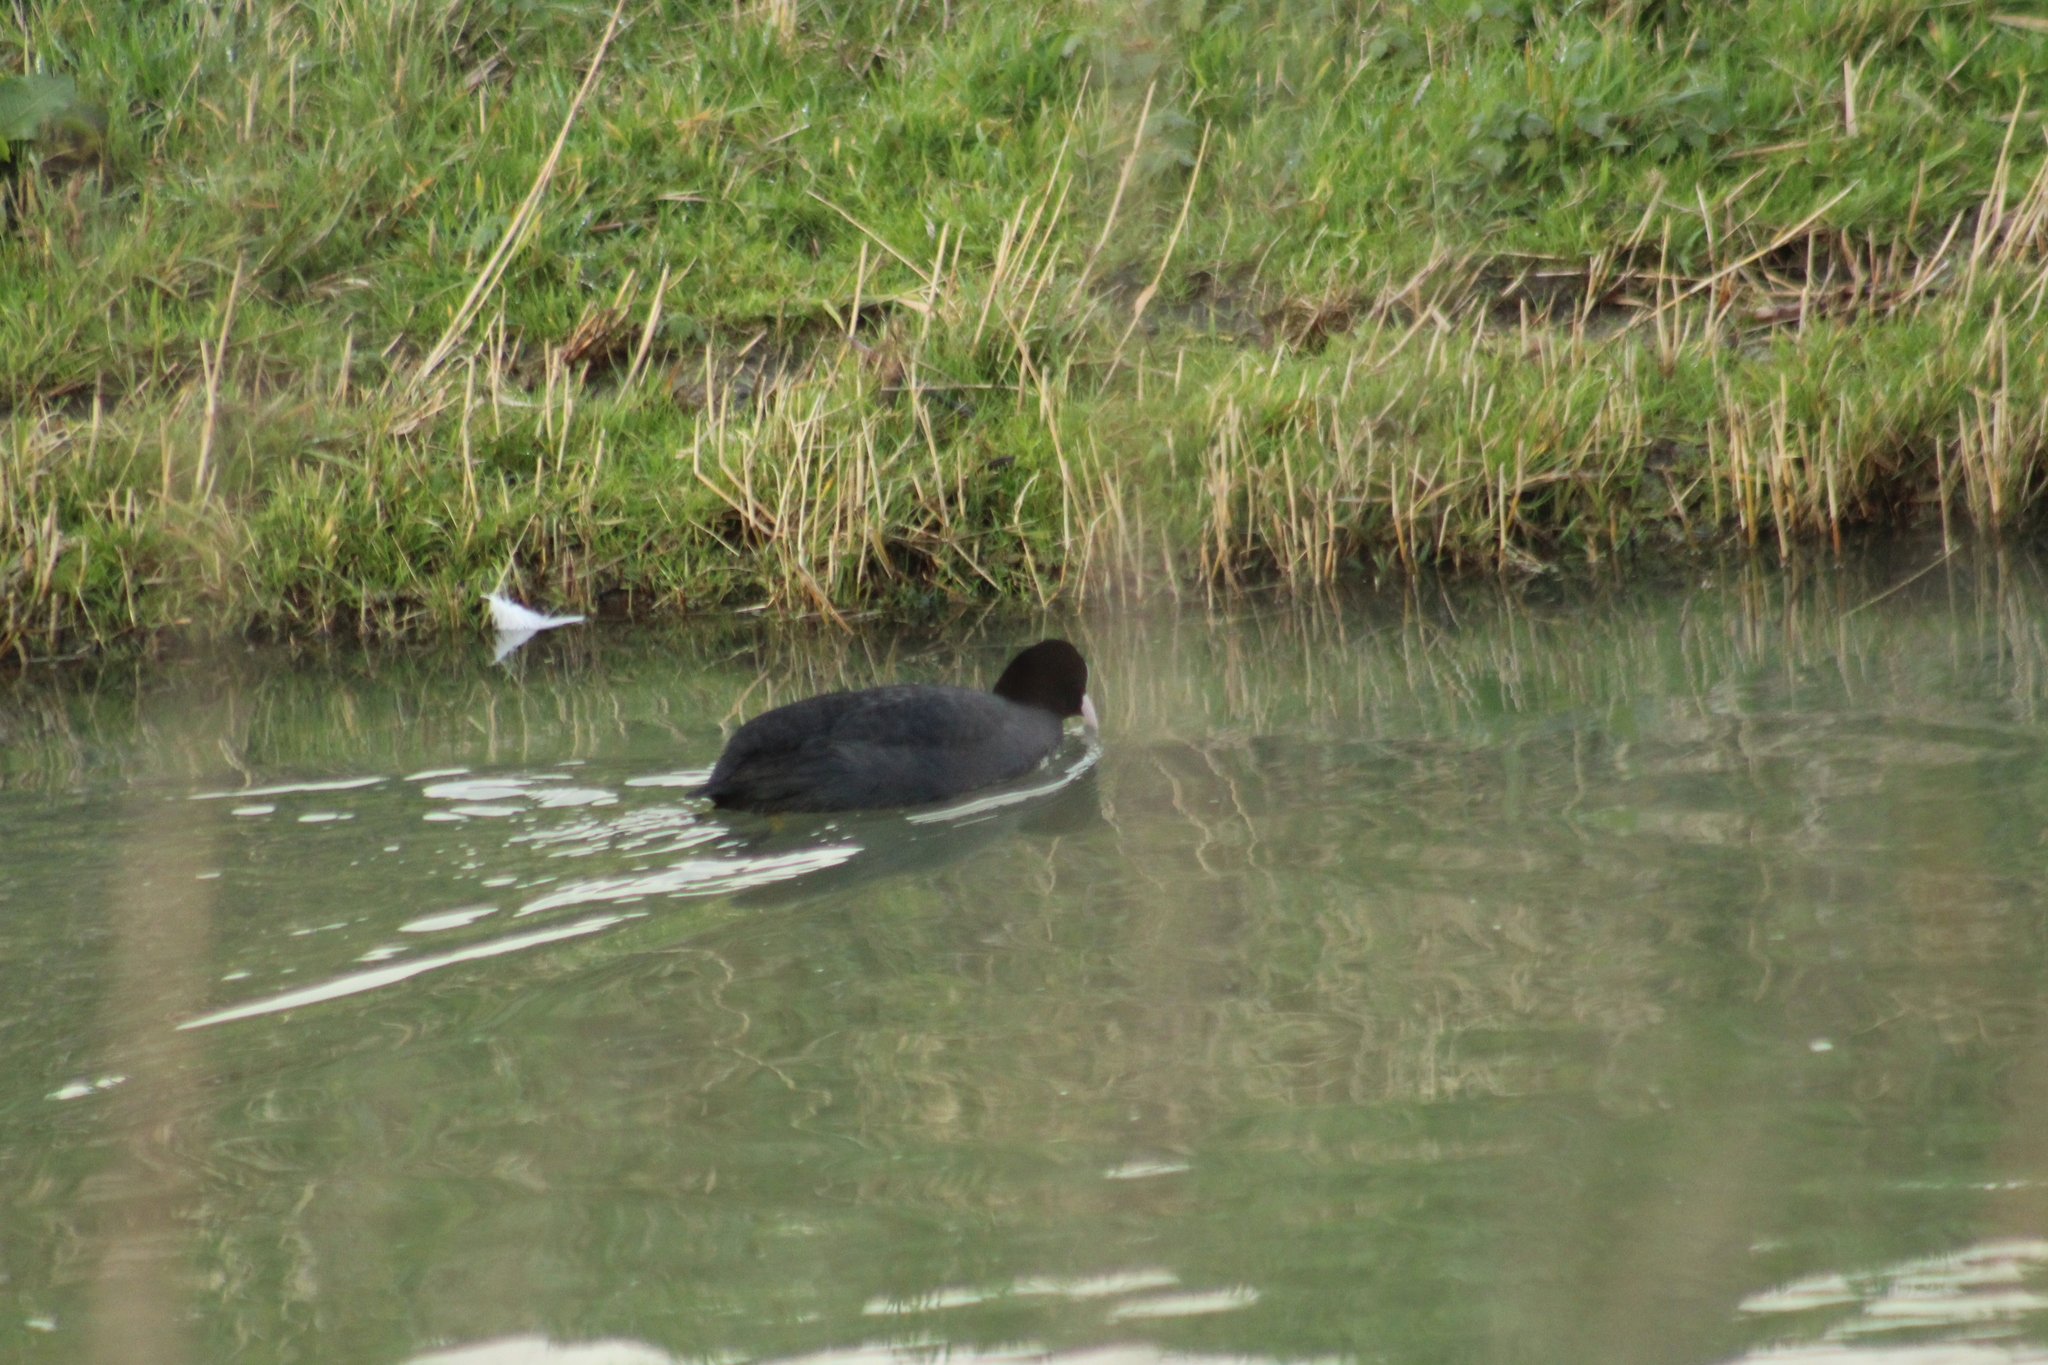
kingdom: Animalia
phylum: Chordata
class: Aves
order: Gruiformes
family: Rallidae
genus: Fulica
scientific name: Fulica atra
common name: Eurasian coot
